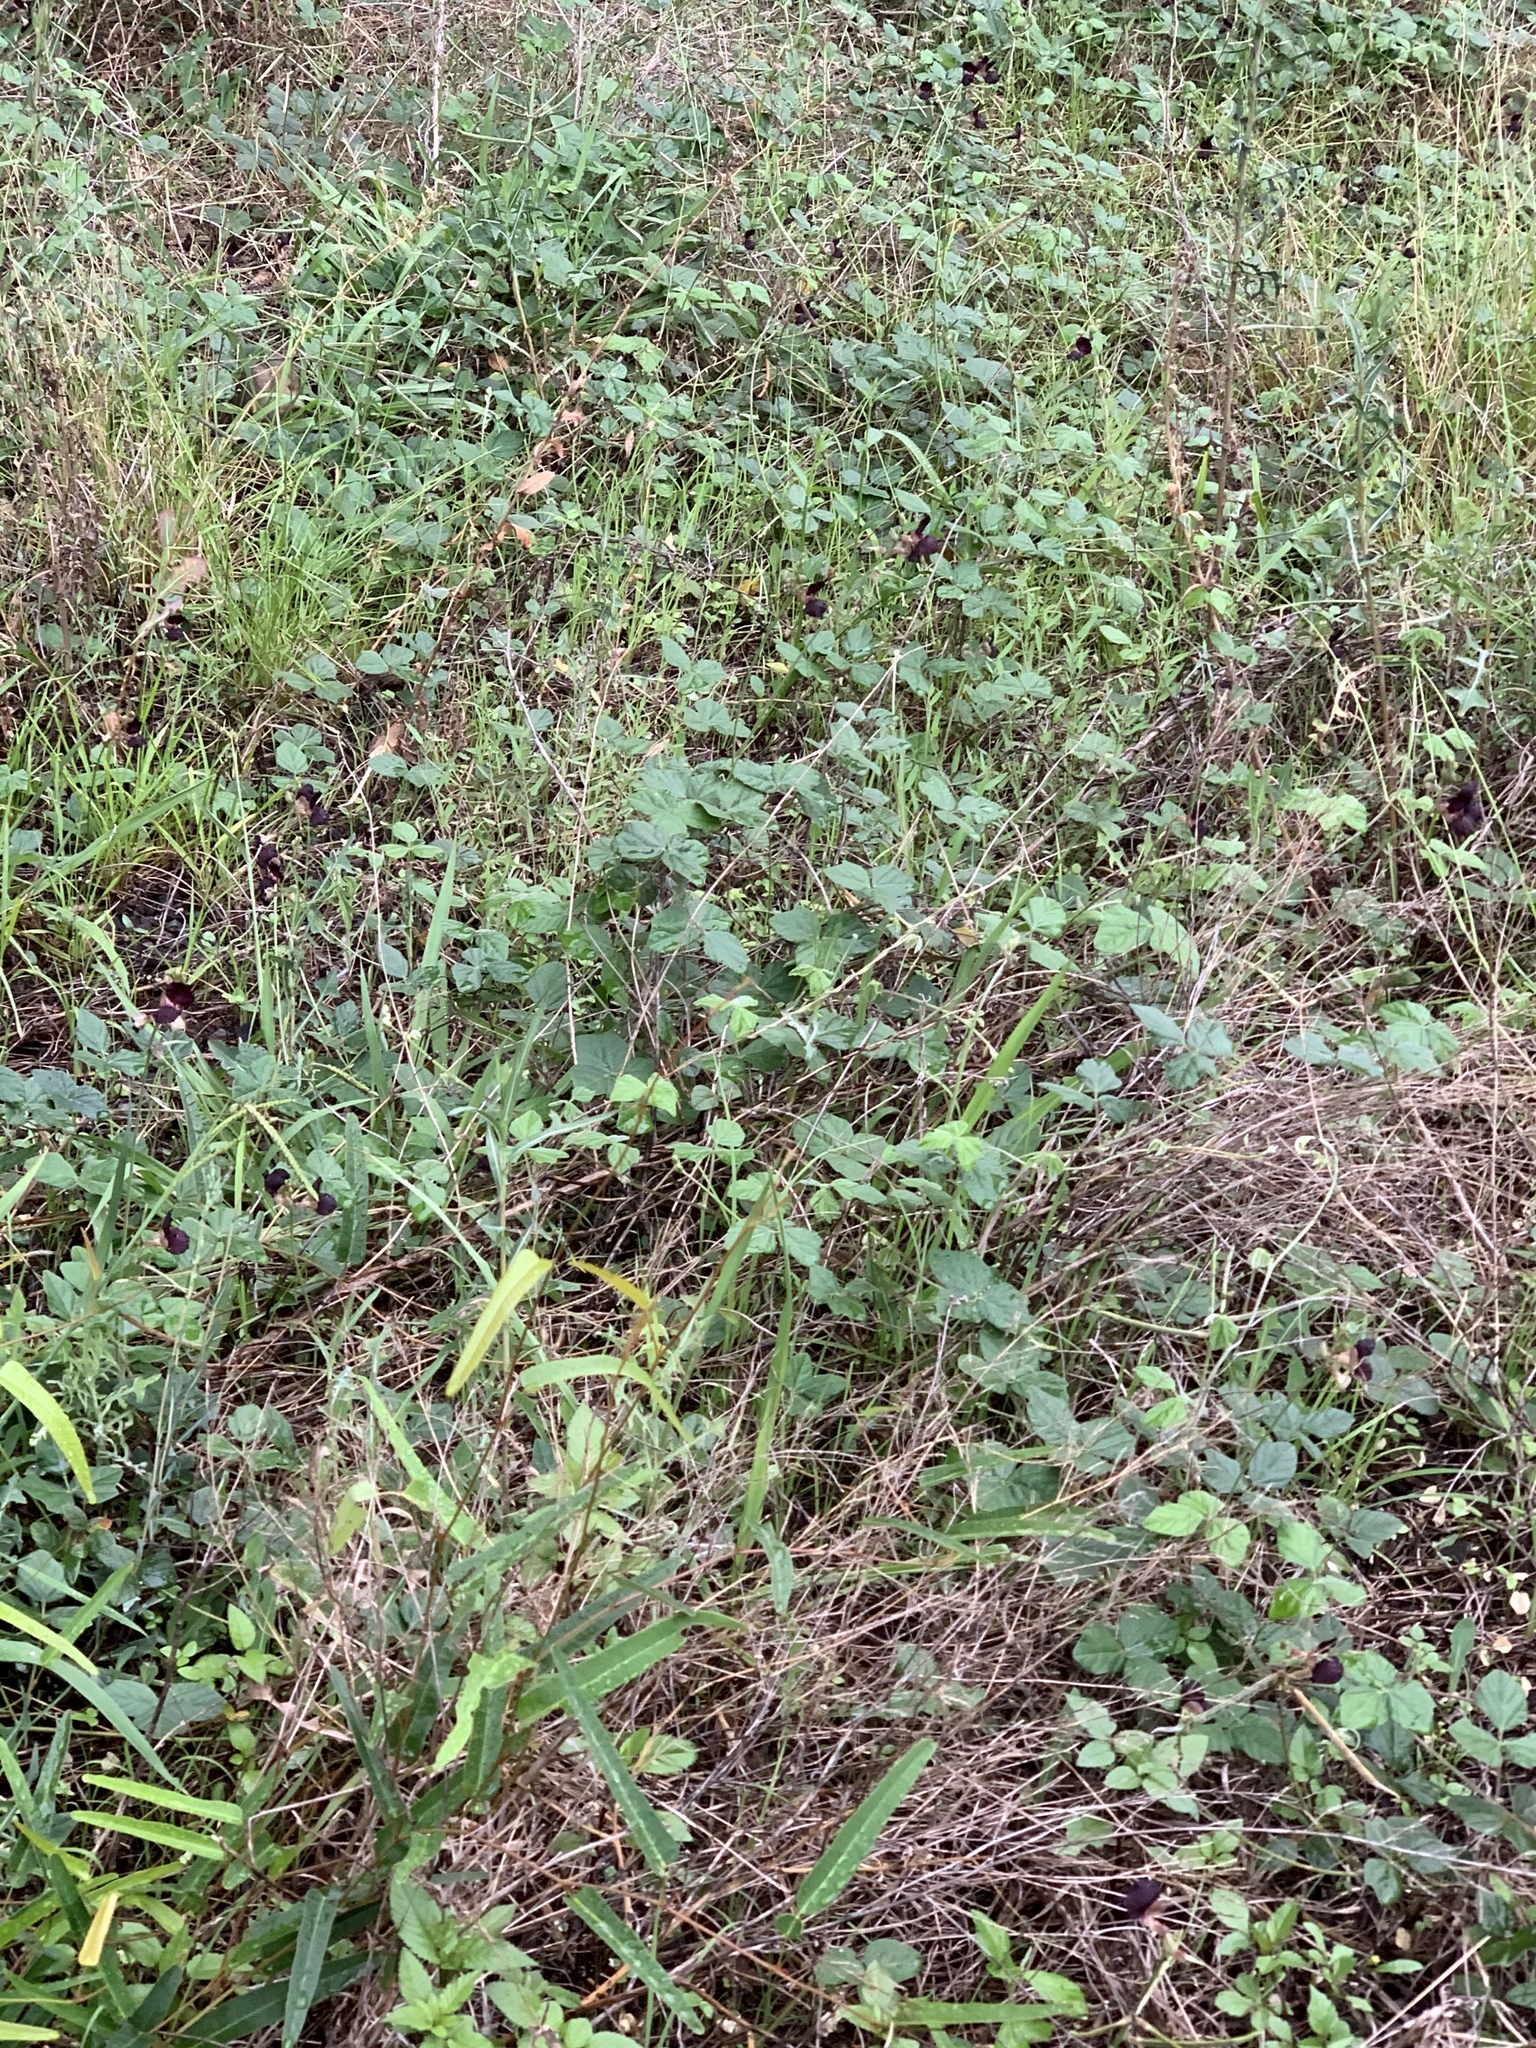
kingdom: Plantae
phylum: Tracheophyta
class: Magnoliopsida
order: Fabales
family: Fabaceae
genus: Macroptilium
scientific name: Macroptilium atropurpureum
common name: Purple bushbean
